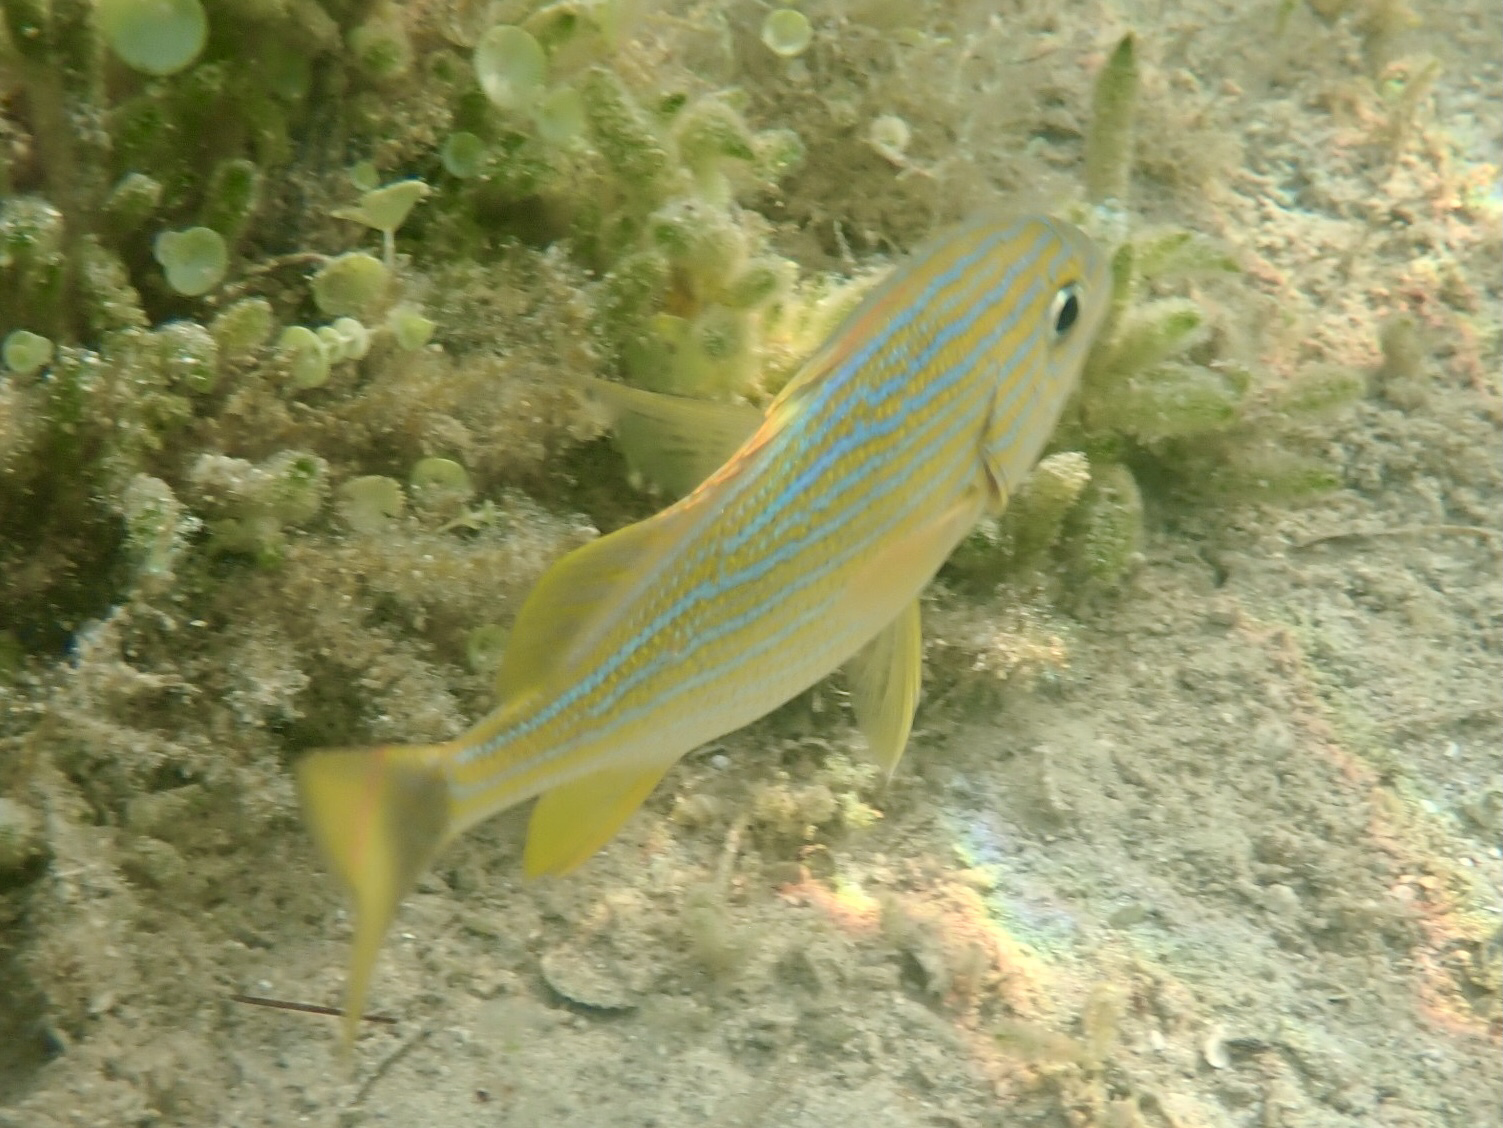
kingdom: Animalia
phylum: Chordata
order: Perciformes
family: Haemulidae
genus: Haemulon
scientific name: Haemulon sciurus
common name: Bluestriped grunt
